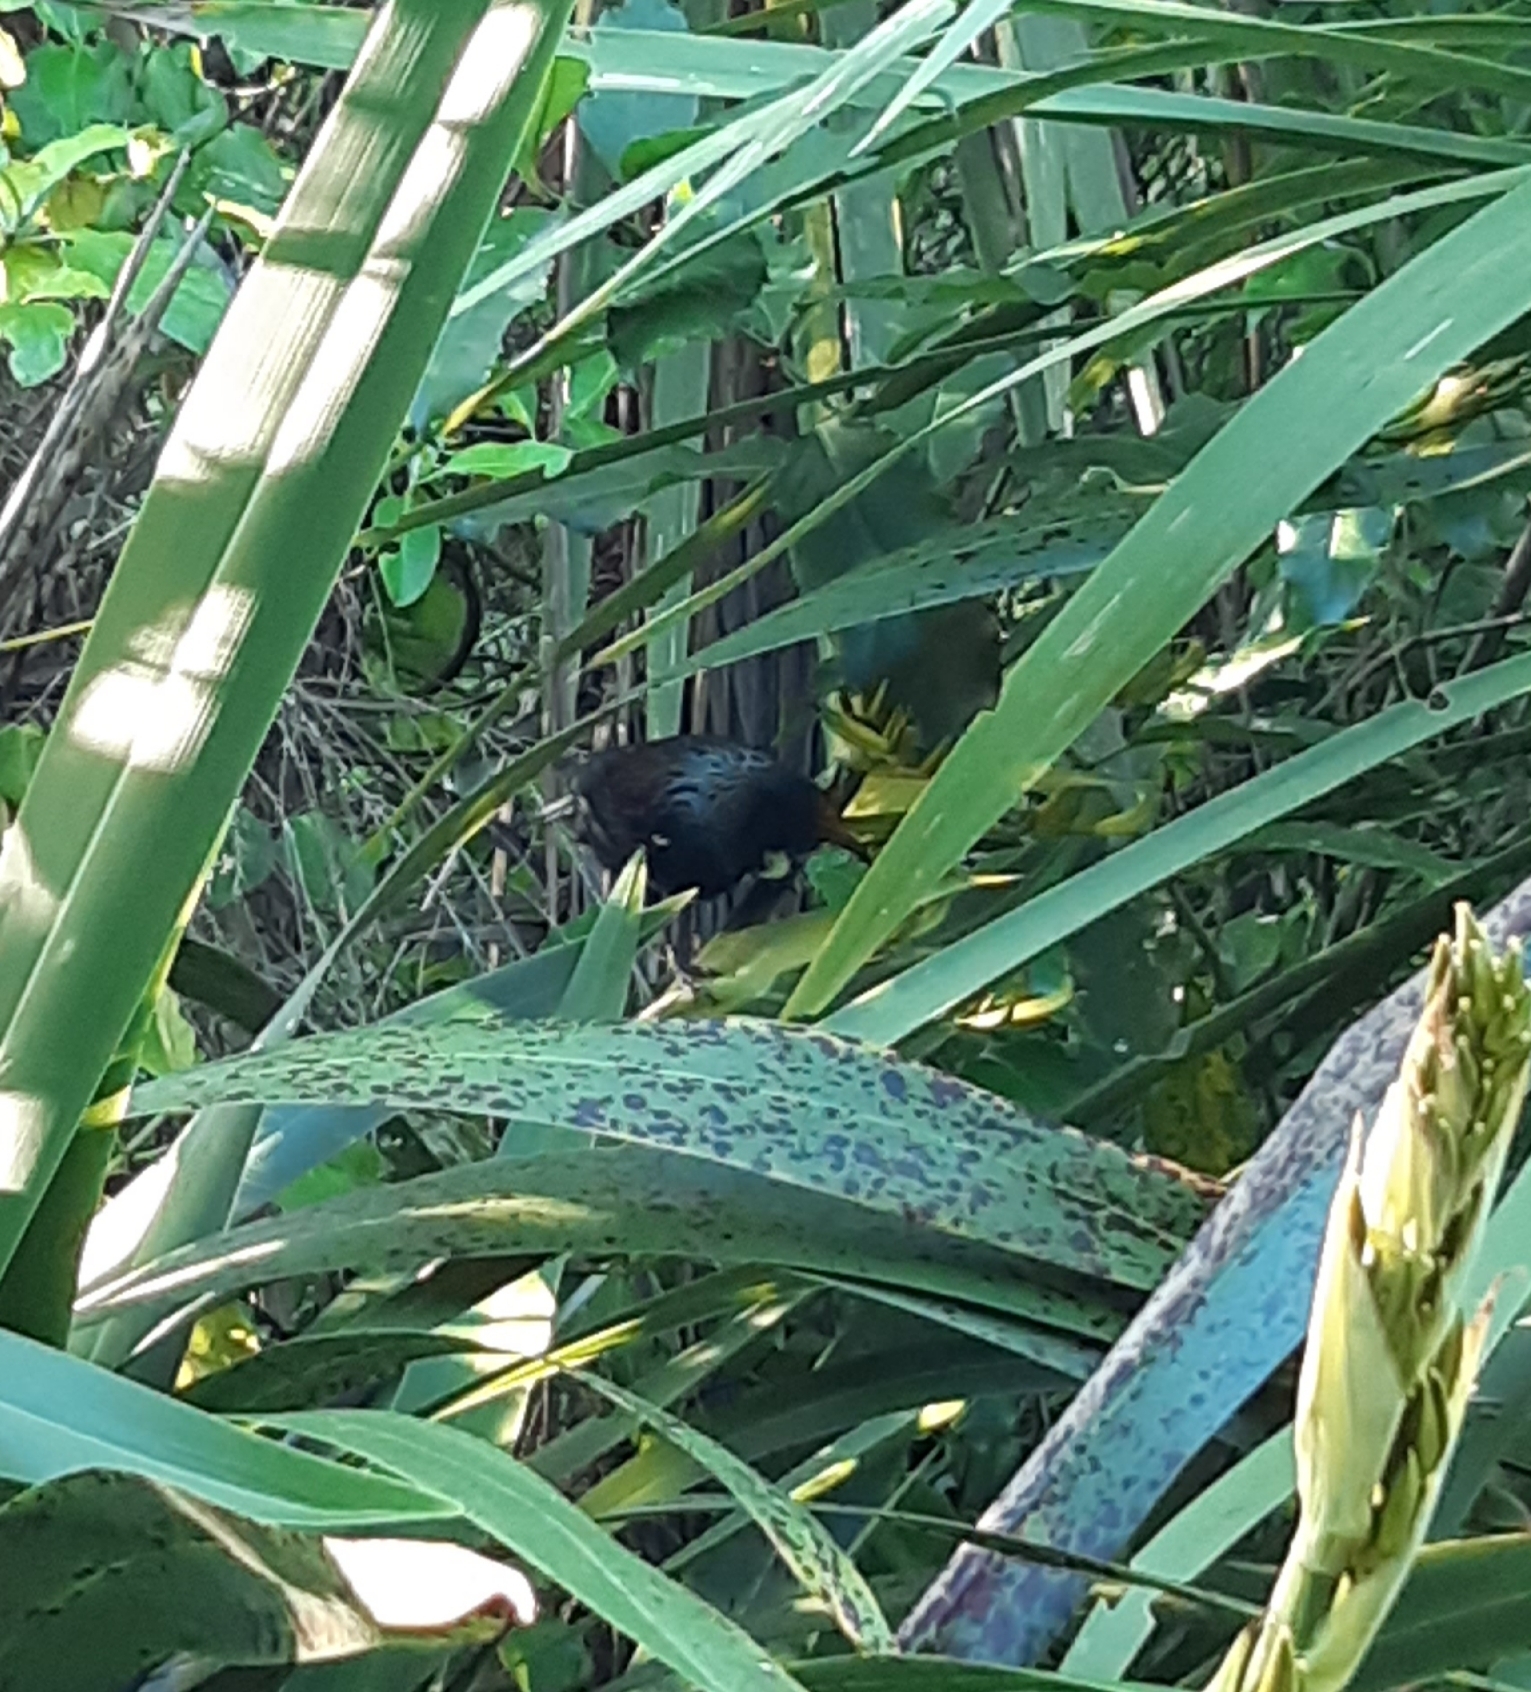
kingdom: Animalia
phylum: Chordata
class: Aves
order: Passeriformes
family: Meliphagidae
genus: Prosthemadera
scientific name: Prosthemadera novaeseelandiae
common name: Tui
